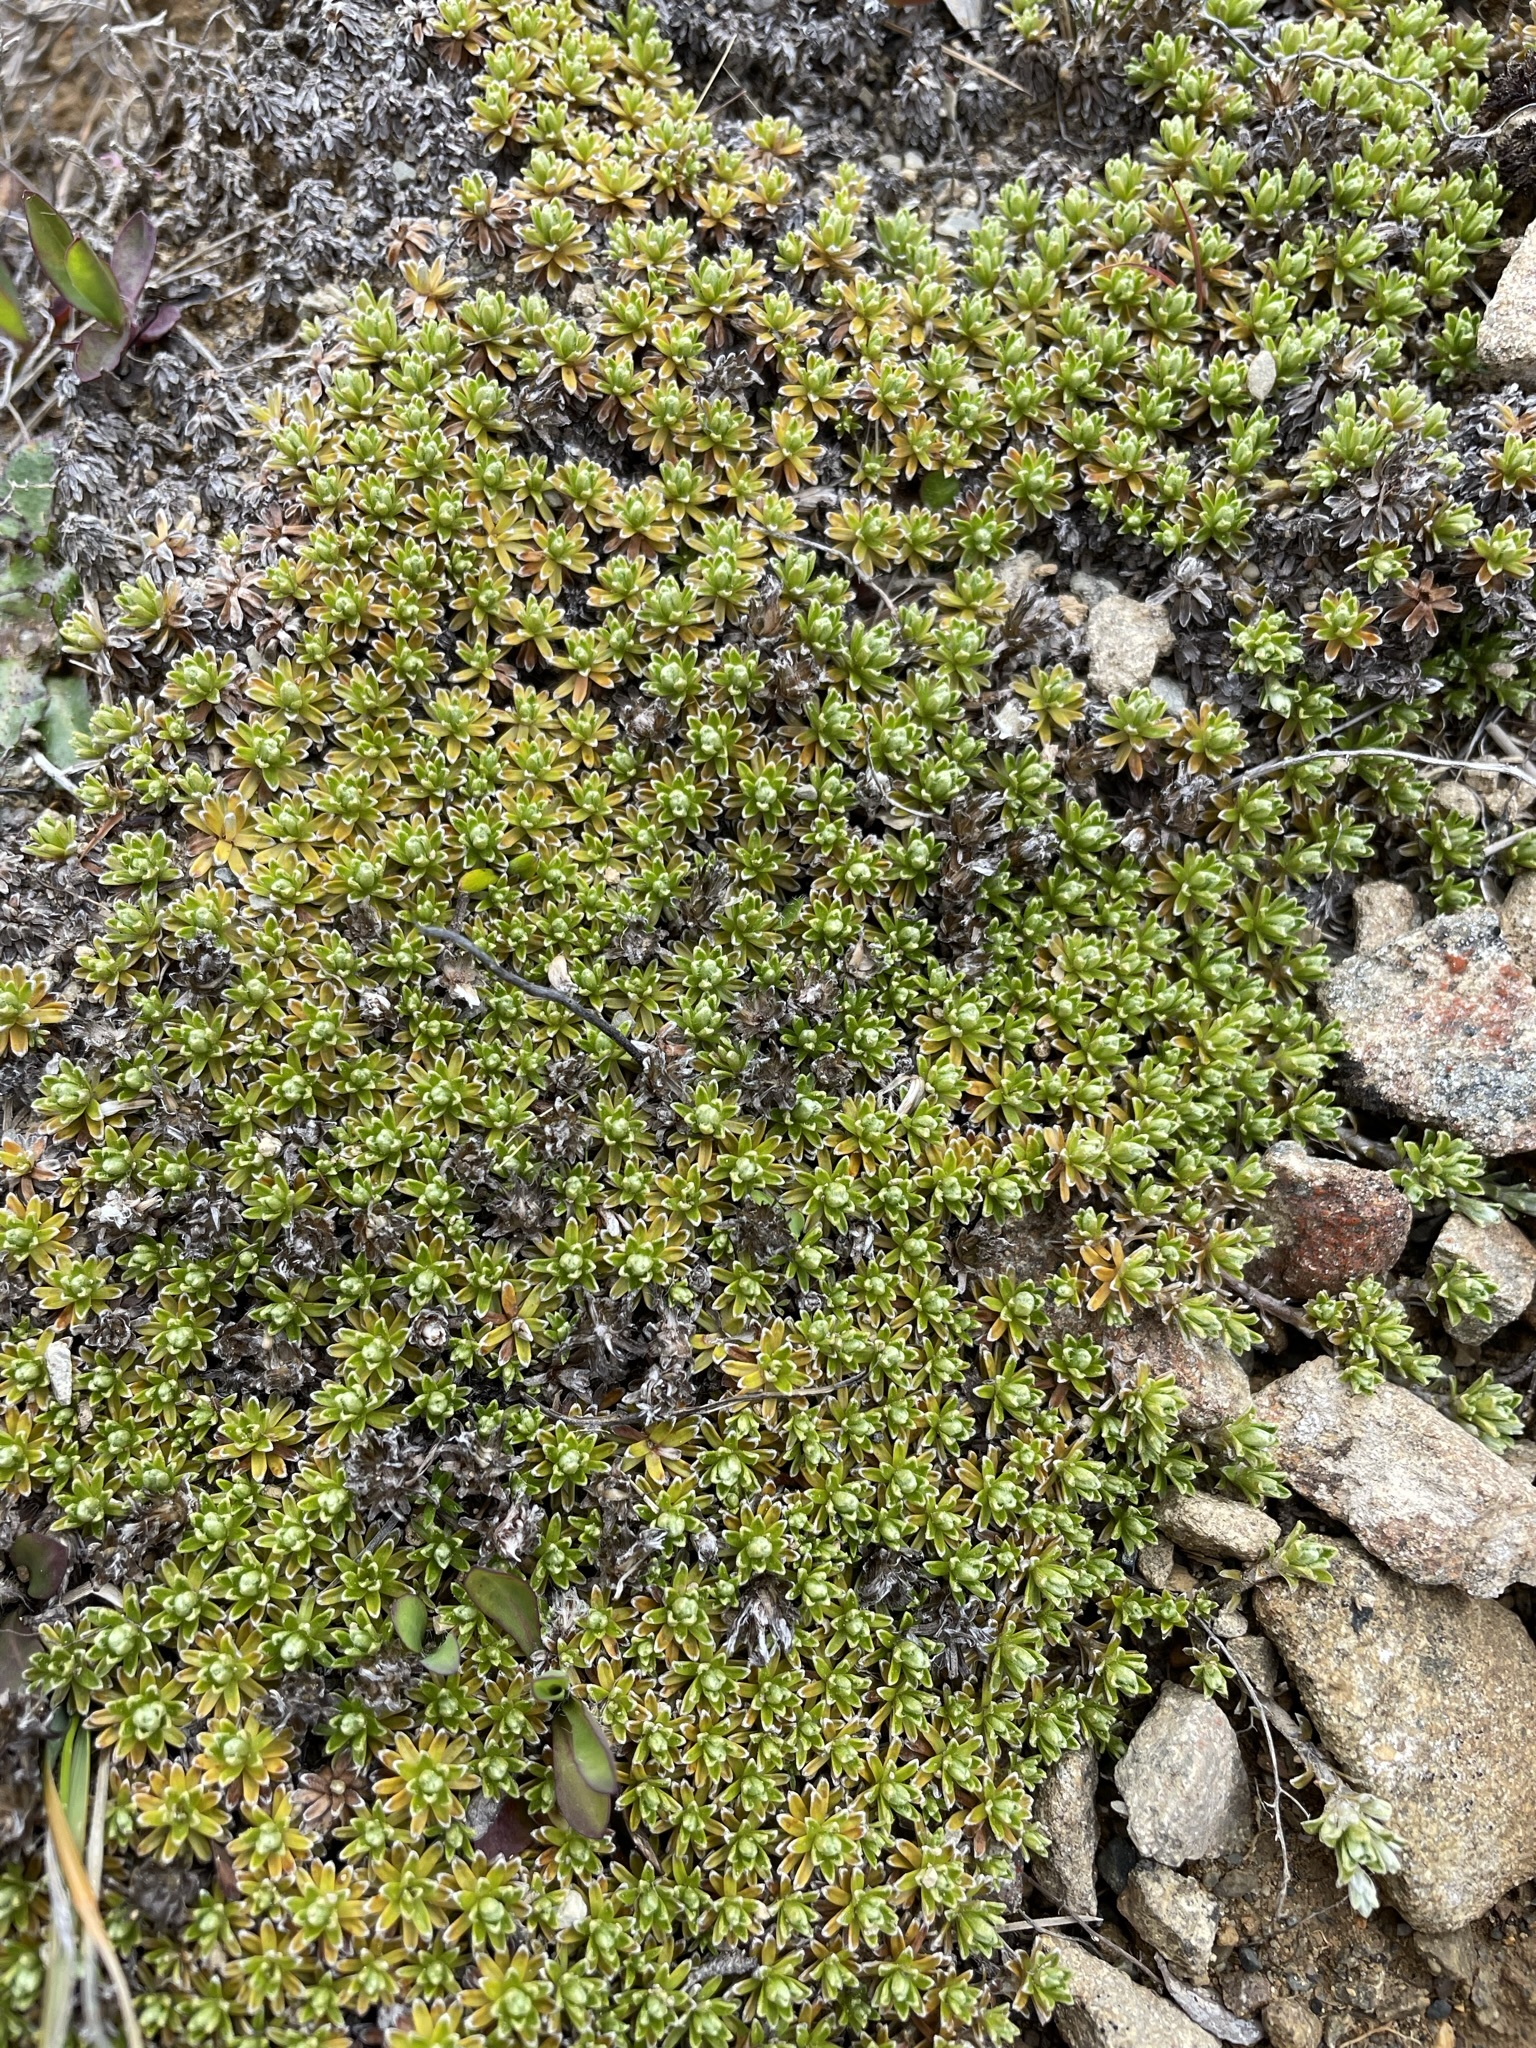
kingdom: Plantae
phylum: Tracheophyta
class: Magnoliopsida
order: Asterales
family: Asteraceae
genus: Raoulia
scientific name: Raoulia subsericea
